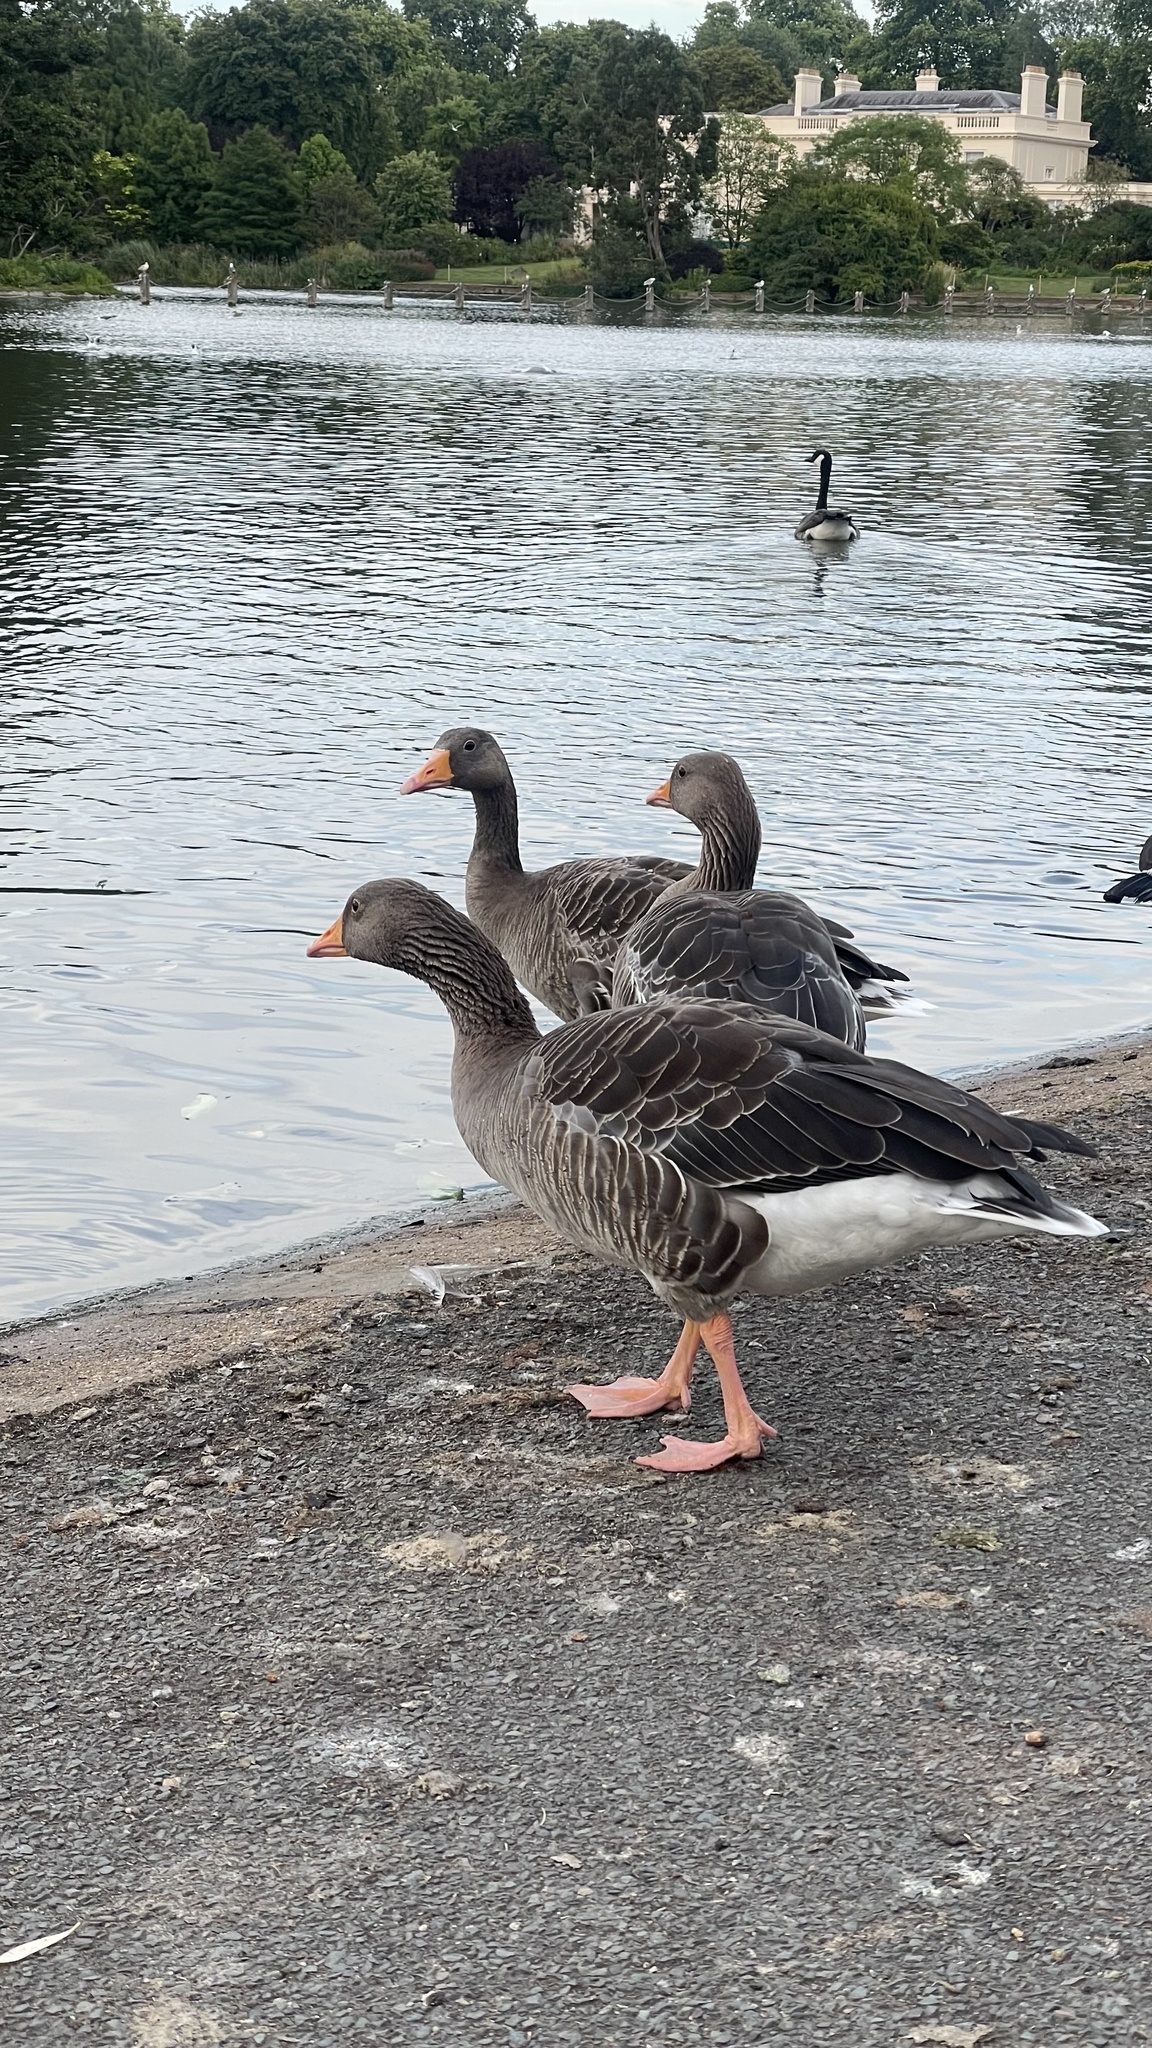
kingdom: Animalia
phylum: Chordata
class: Aves
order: Anseriformes
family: Anatidae
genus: Anser
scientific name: Anser anser
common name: Greylag goose
